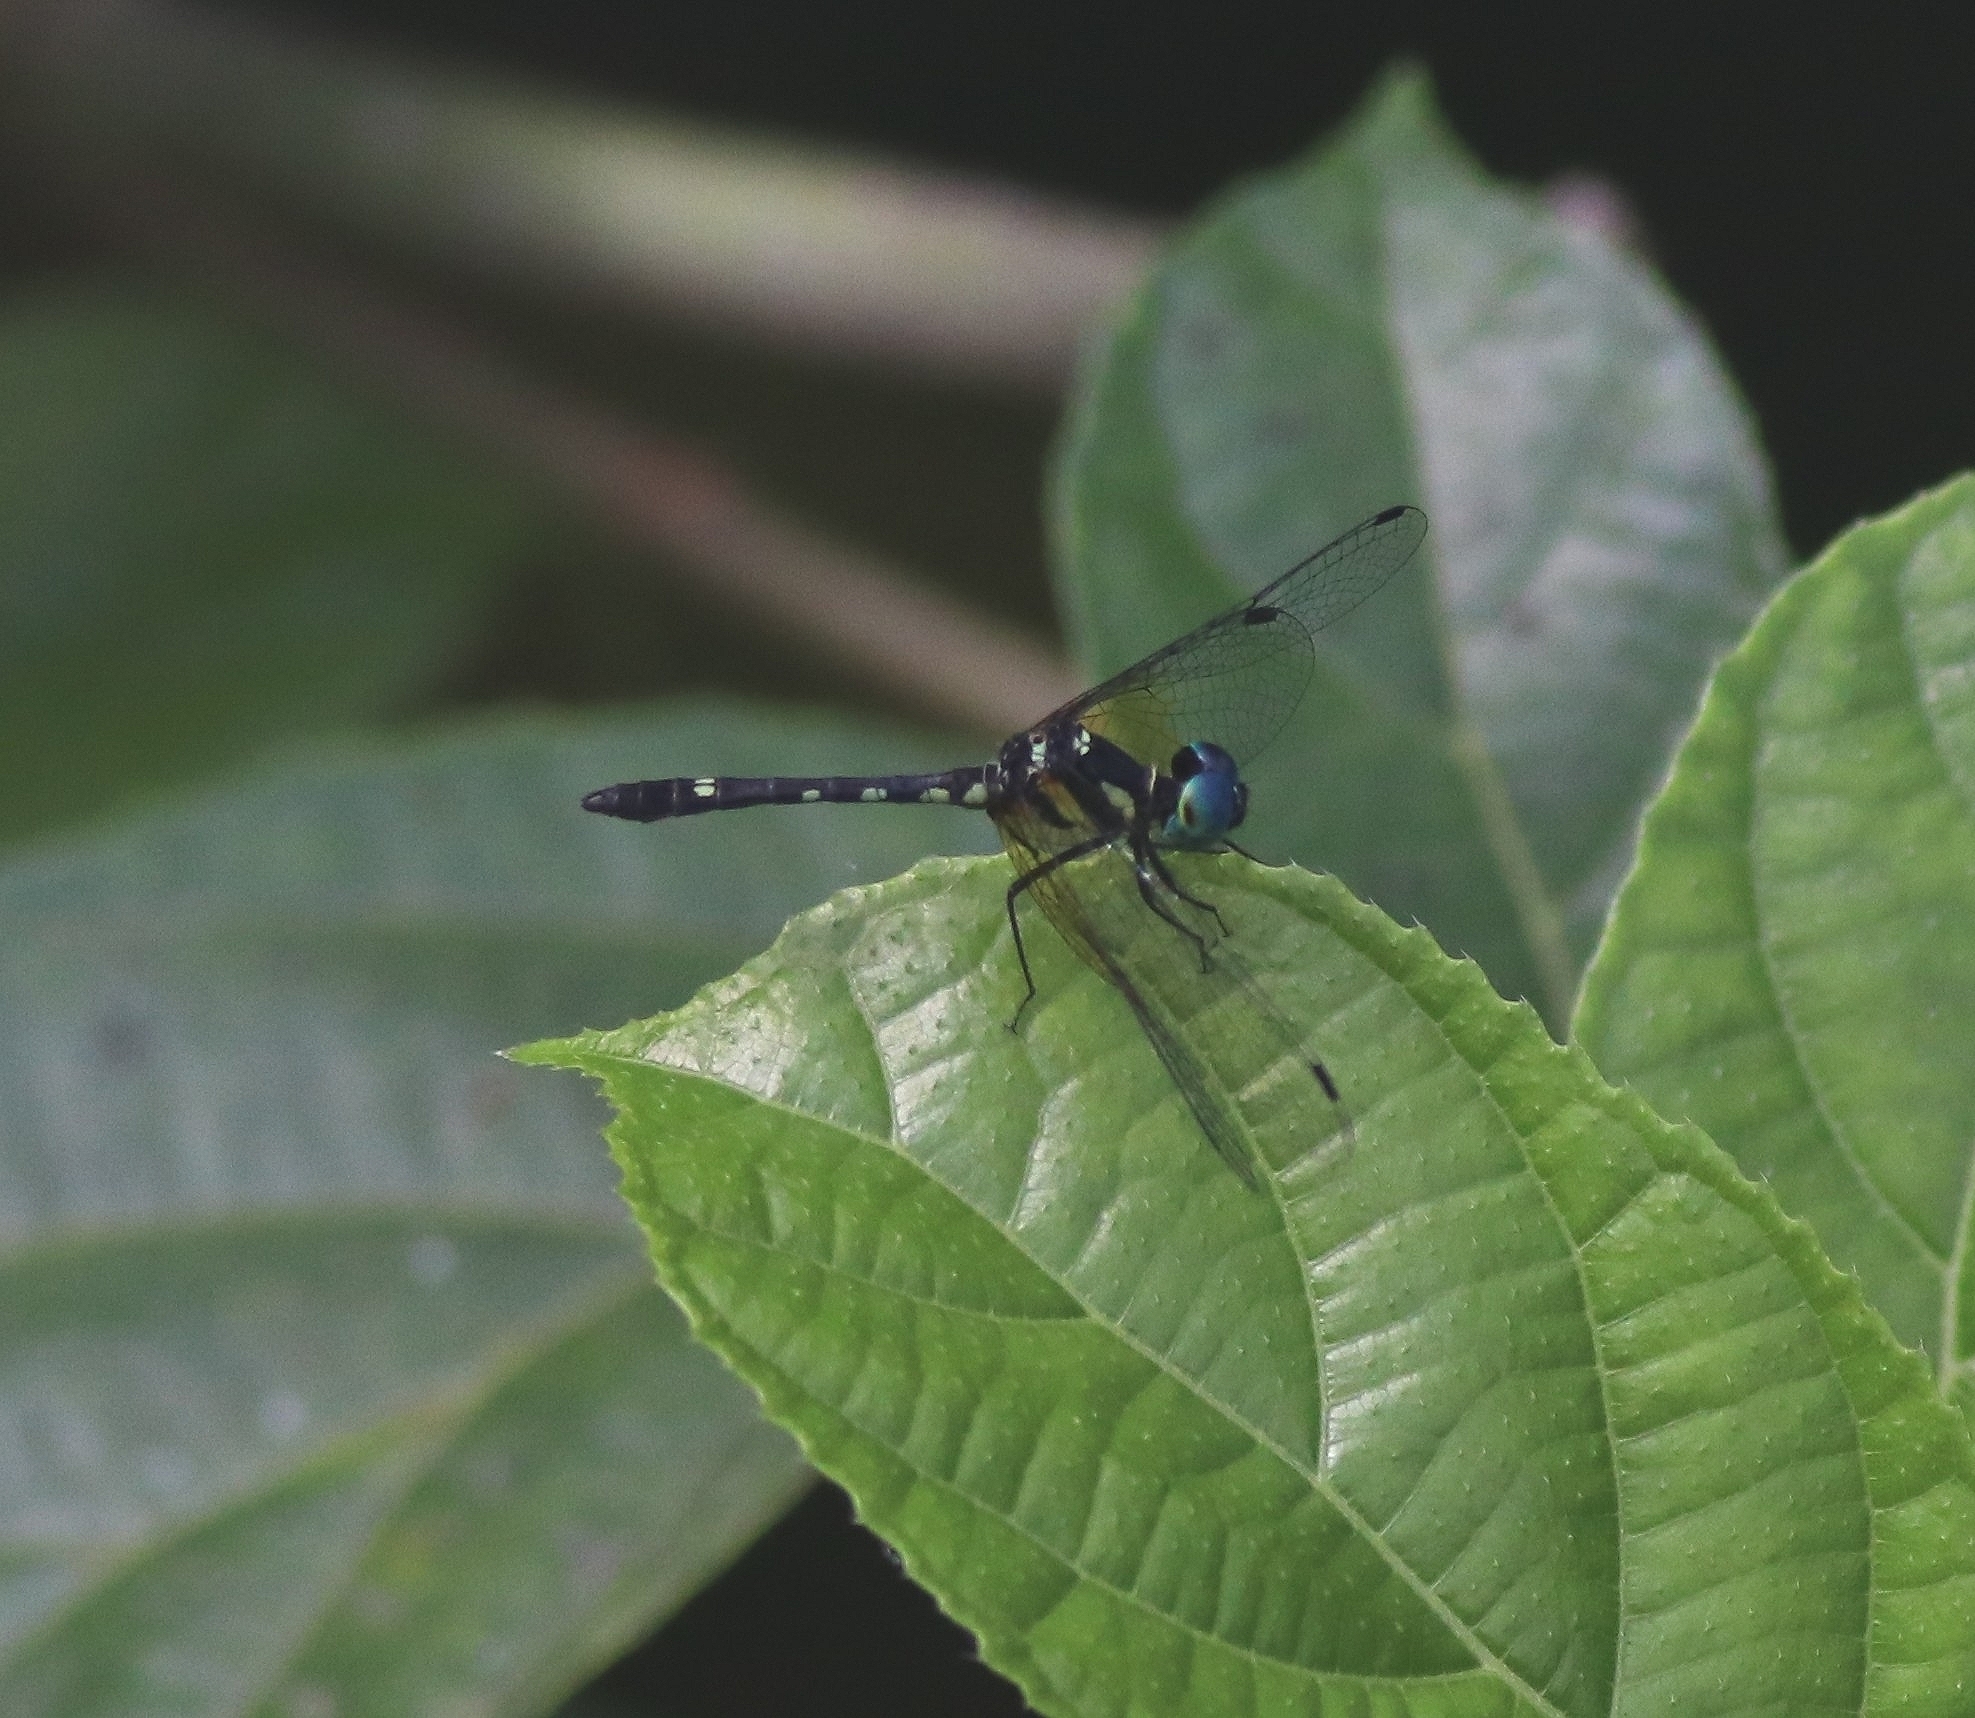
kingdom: Animalia
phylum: Arthropoda
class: Insecta
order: Odonata
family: Libellulidae
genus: Tetrathemis
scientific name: Tetrathemis platyptera
